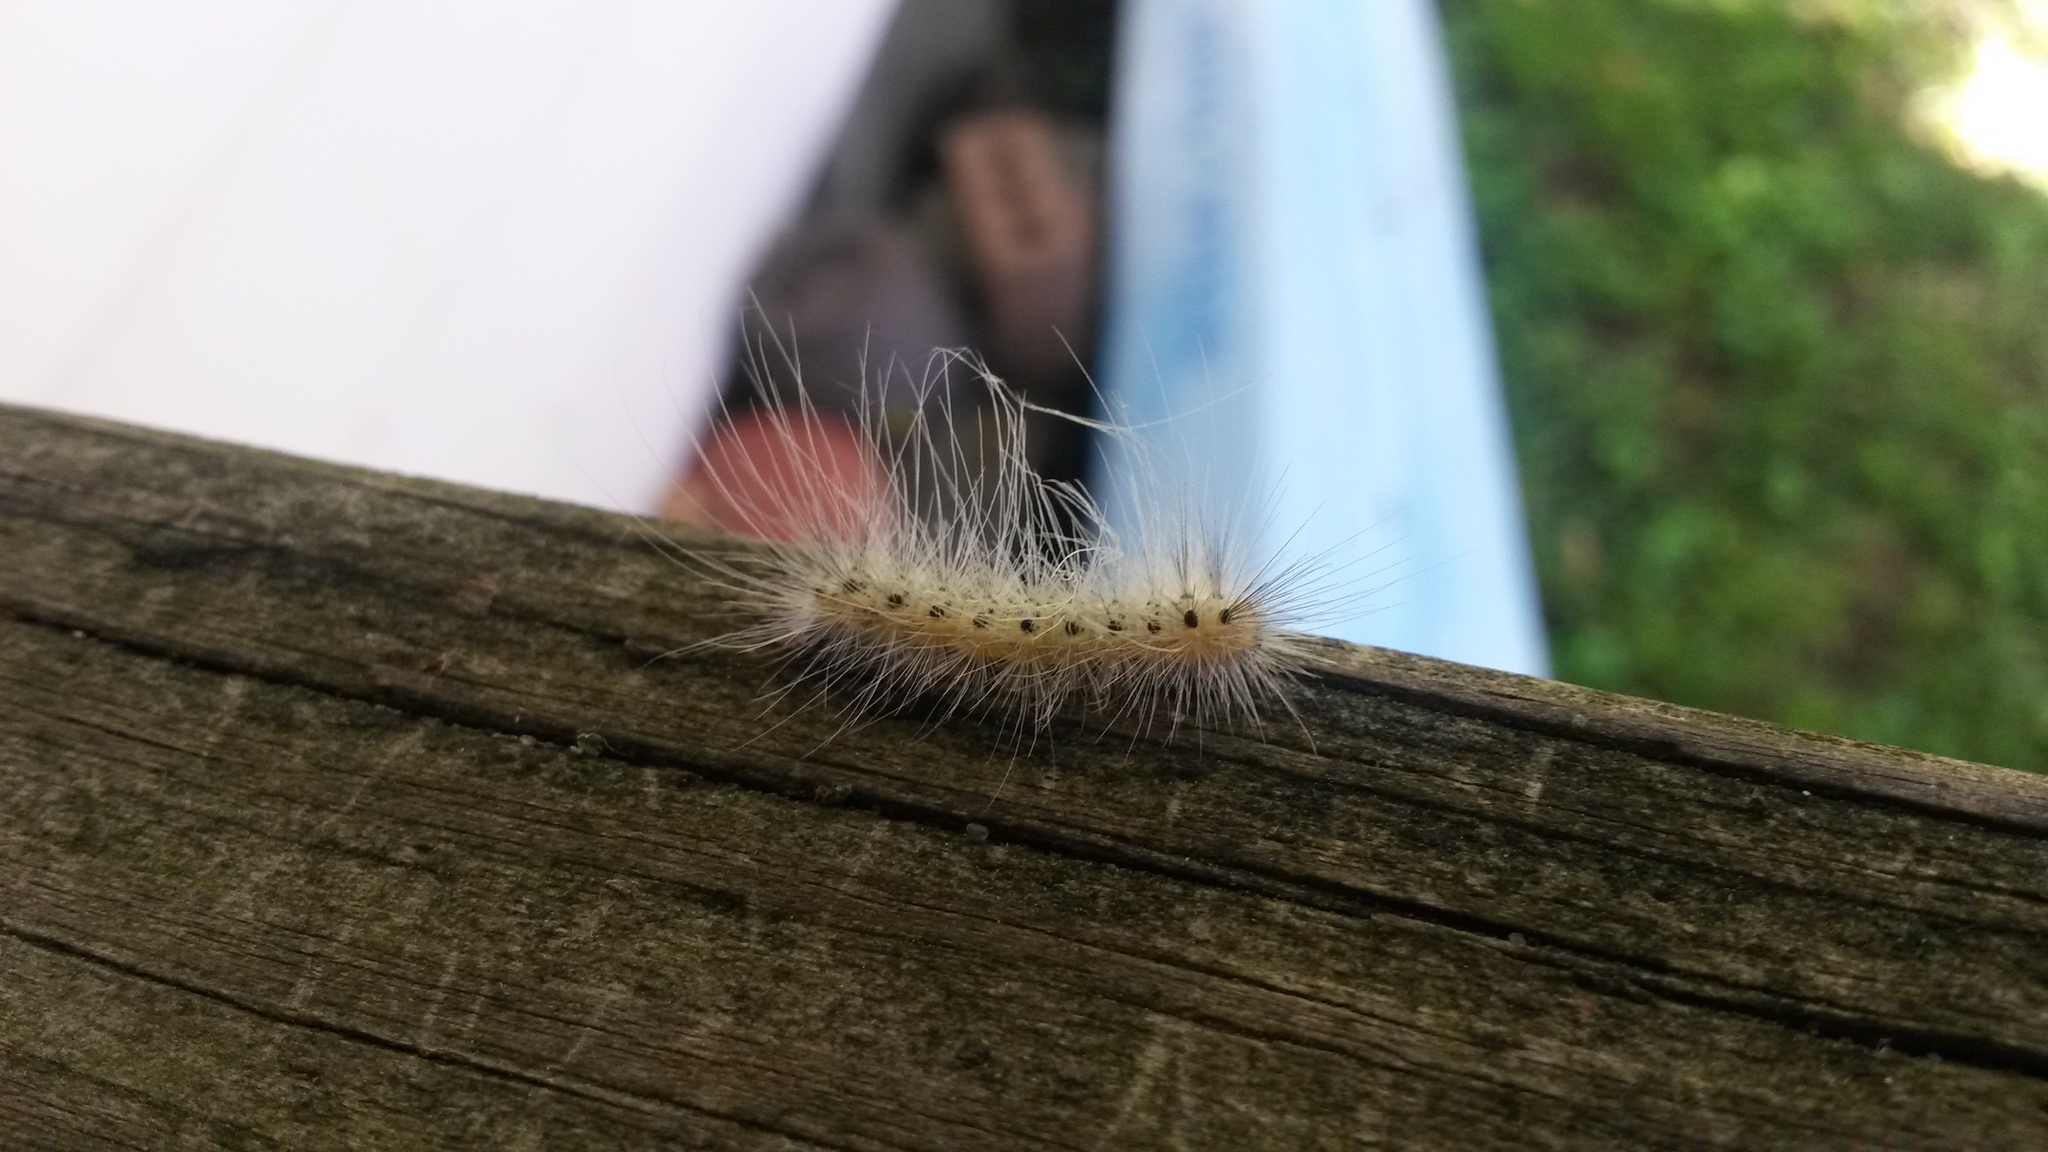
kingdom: Animalia
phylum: Arthropoda
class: Insecta
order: Lepidoptera
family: Erebidae
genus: Hyphantria
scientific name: Hyphantria cunea
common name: American white moth
